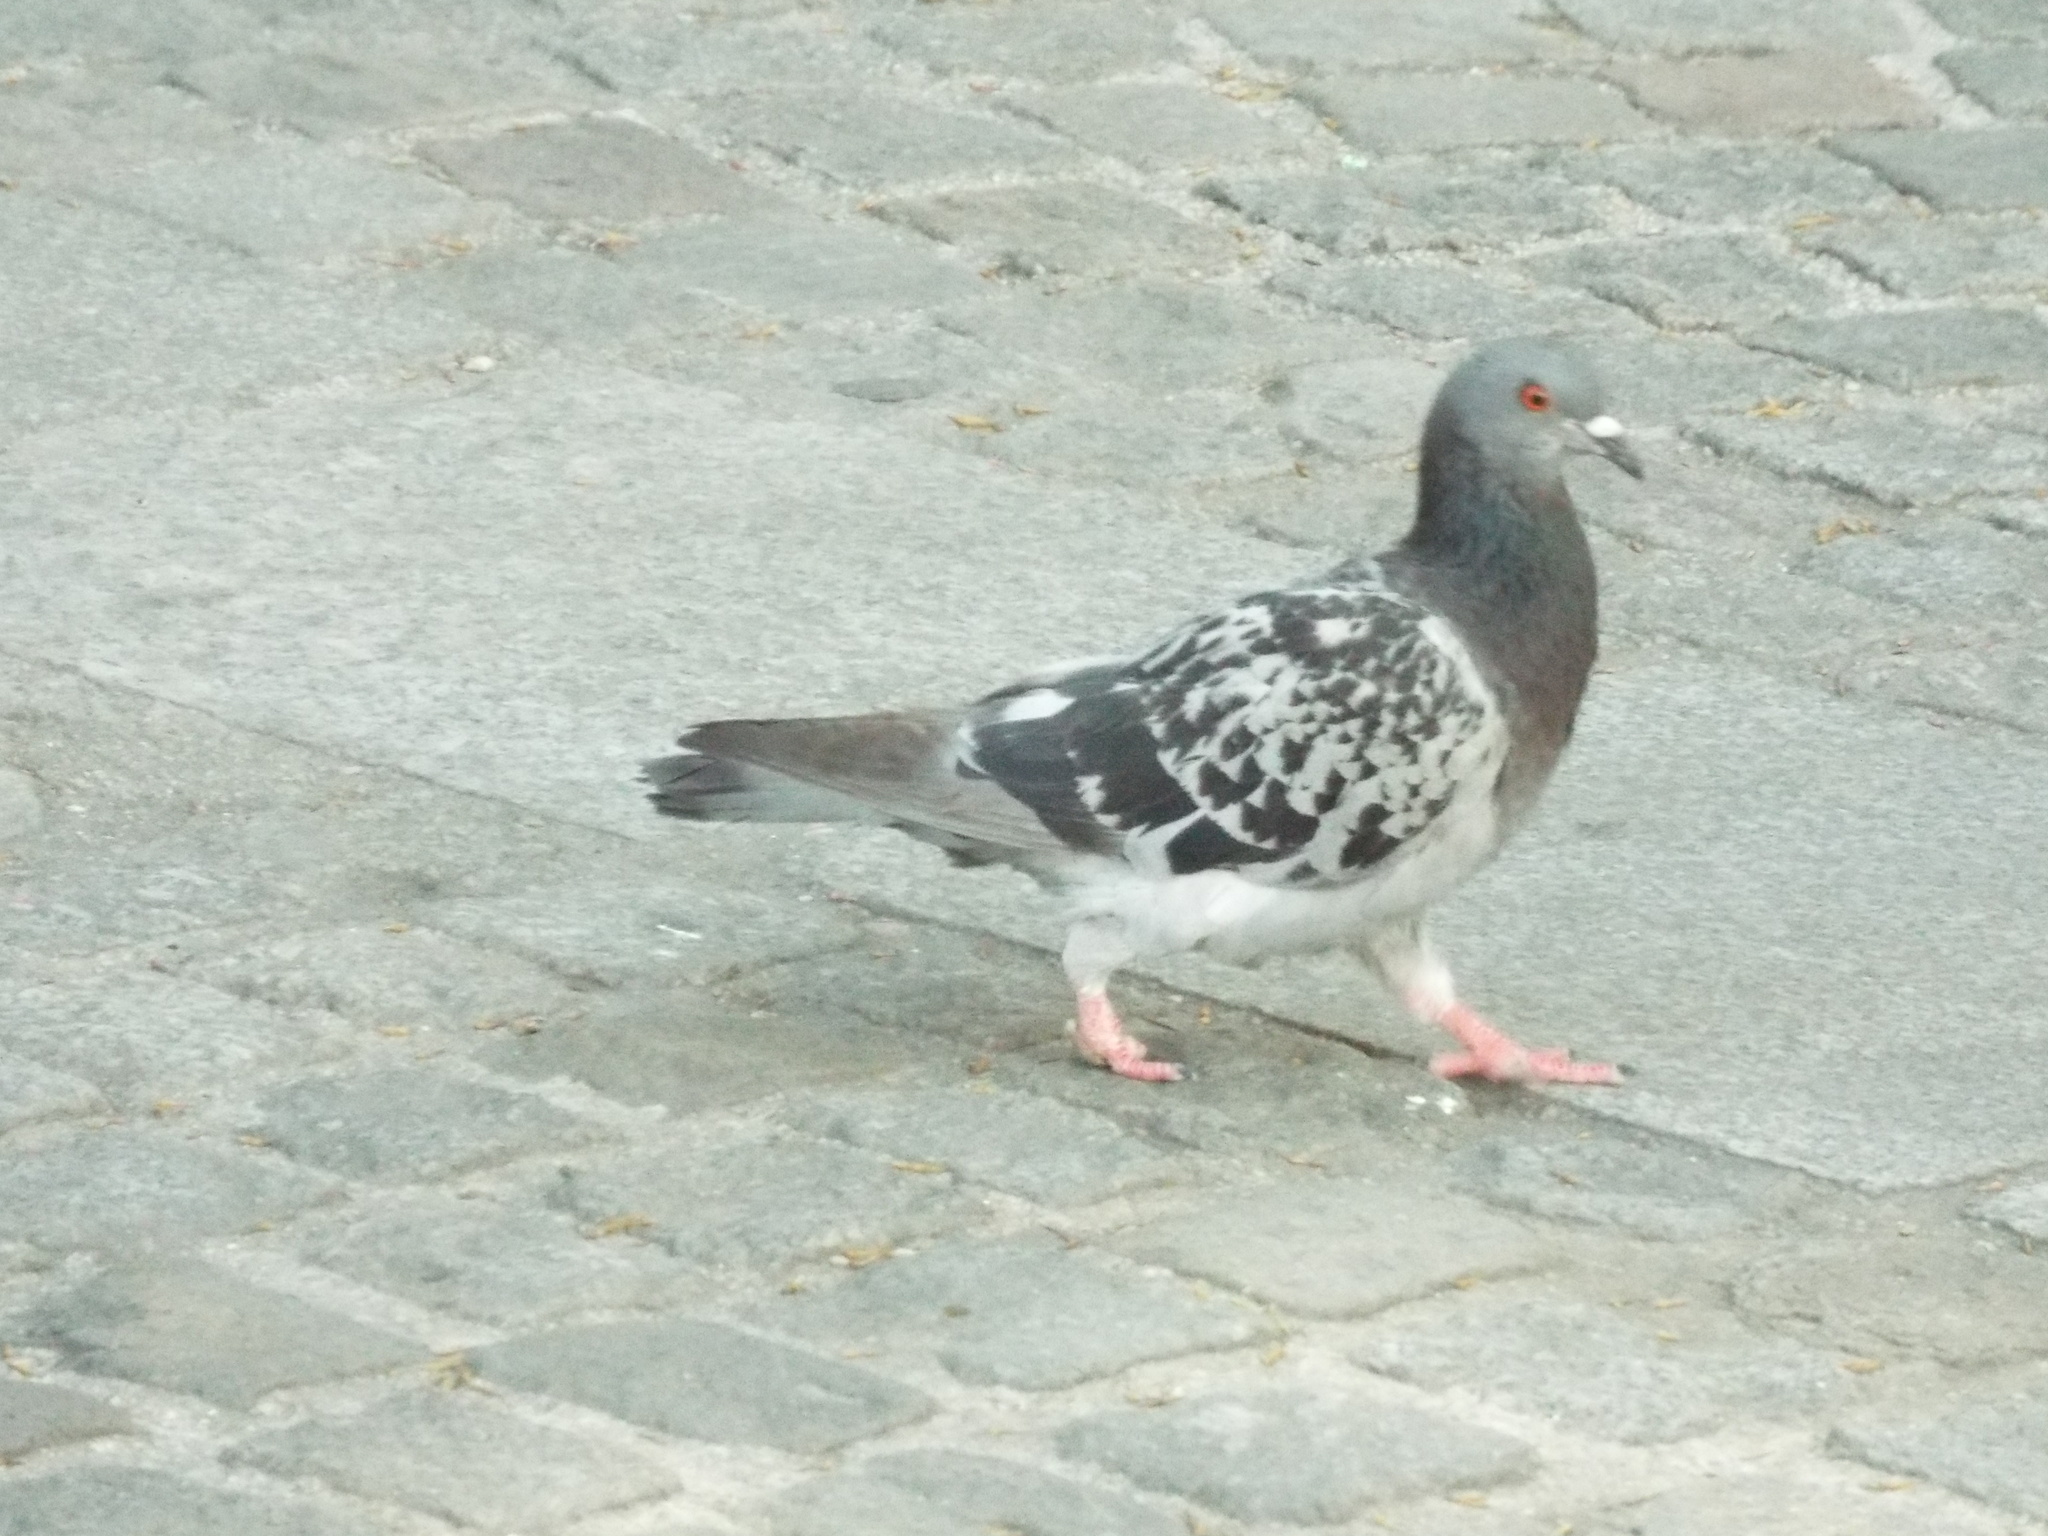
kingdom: Animalia
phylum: Chordata
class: Aves
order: Columbiformes
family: Columbidae
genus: Columba
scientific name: Columba livia
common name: Rock pigeon
